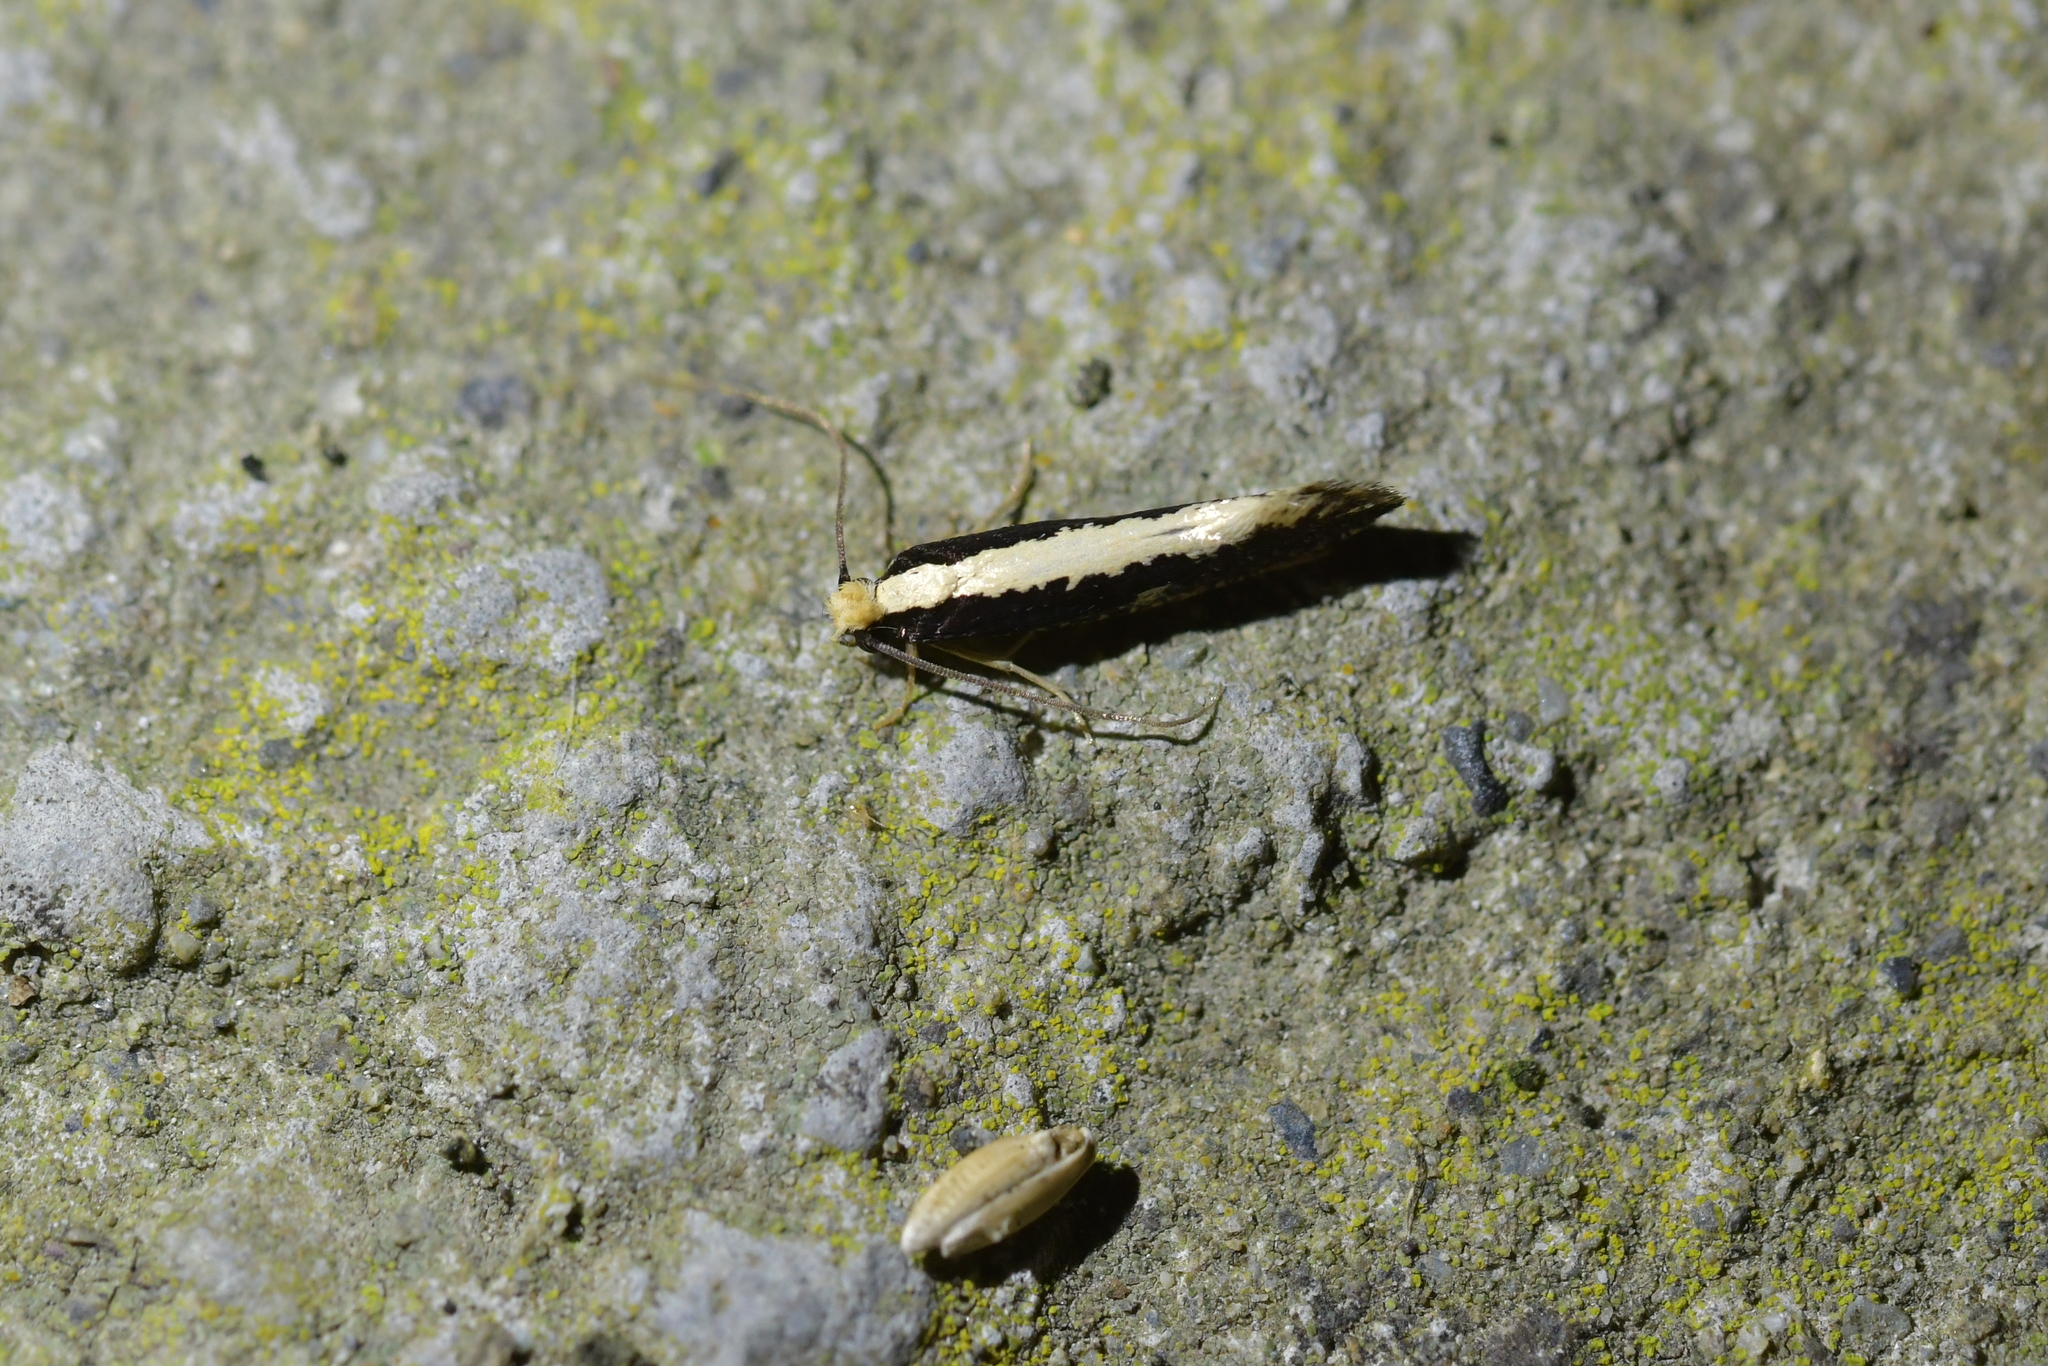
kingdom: Animalia
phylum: Arthropoda
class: Insecta
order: Lepidoptera
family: Tineidae
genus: Monopis
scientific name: Monopis ethelella
